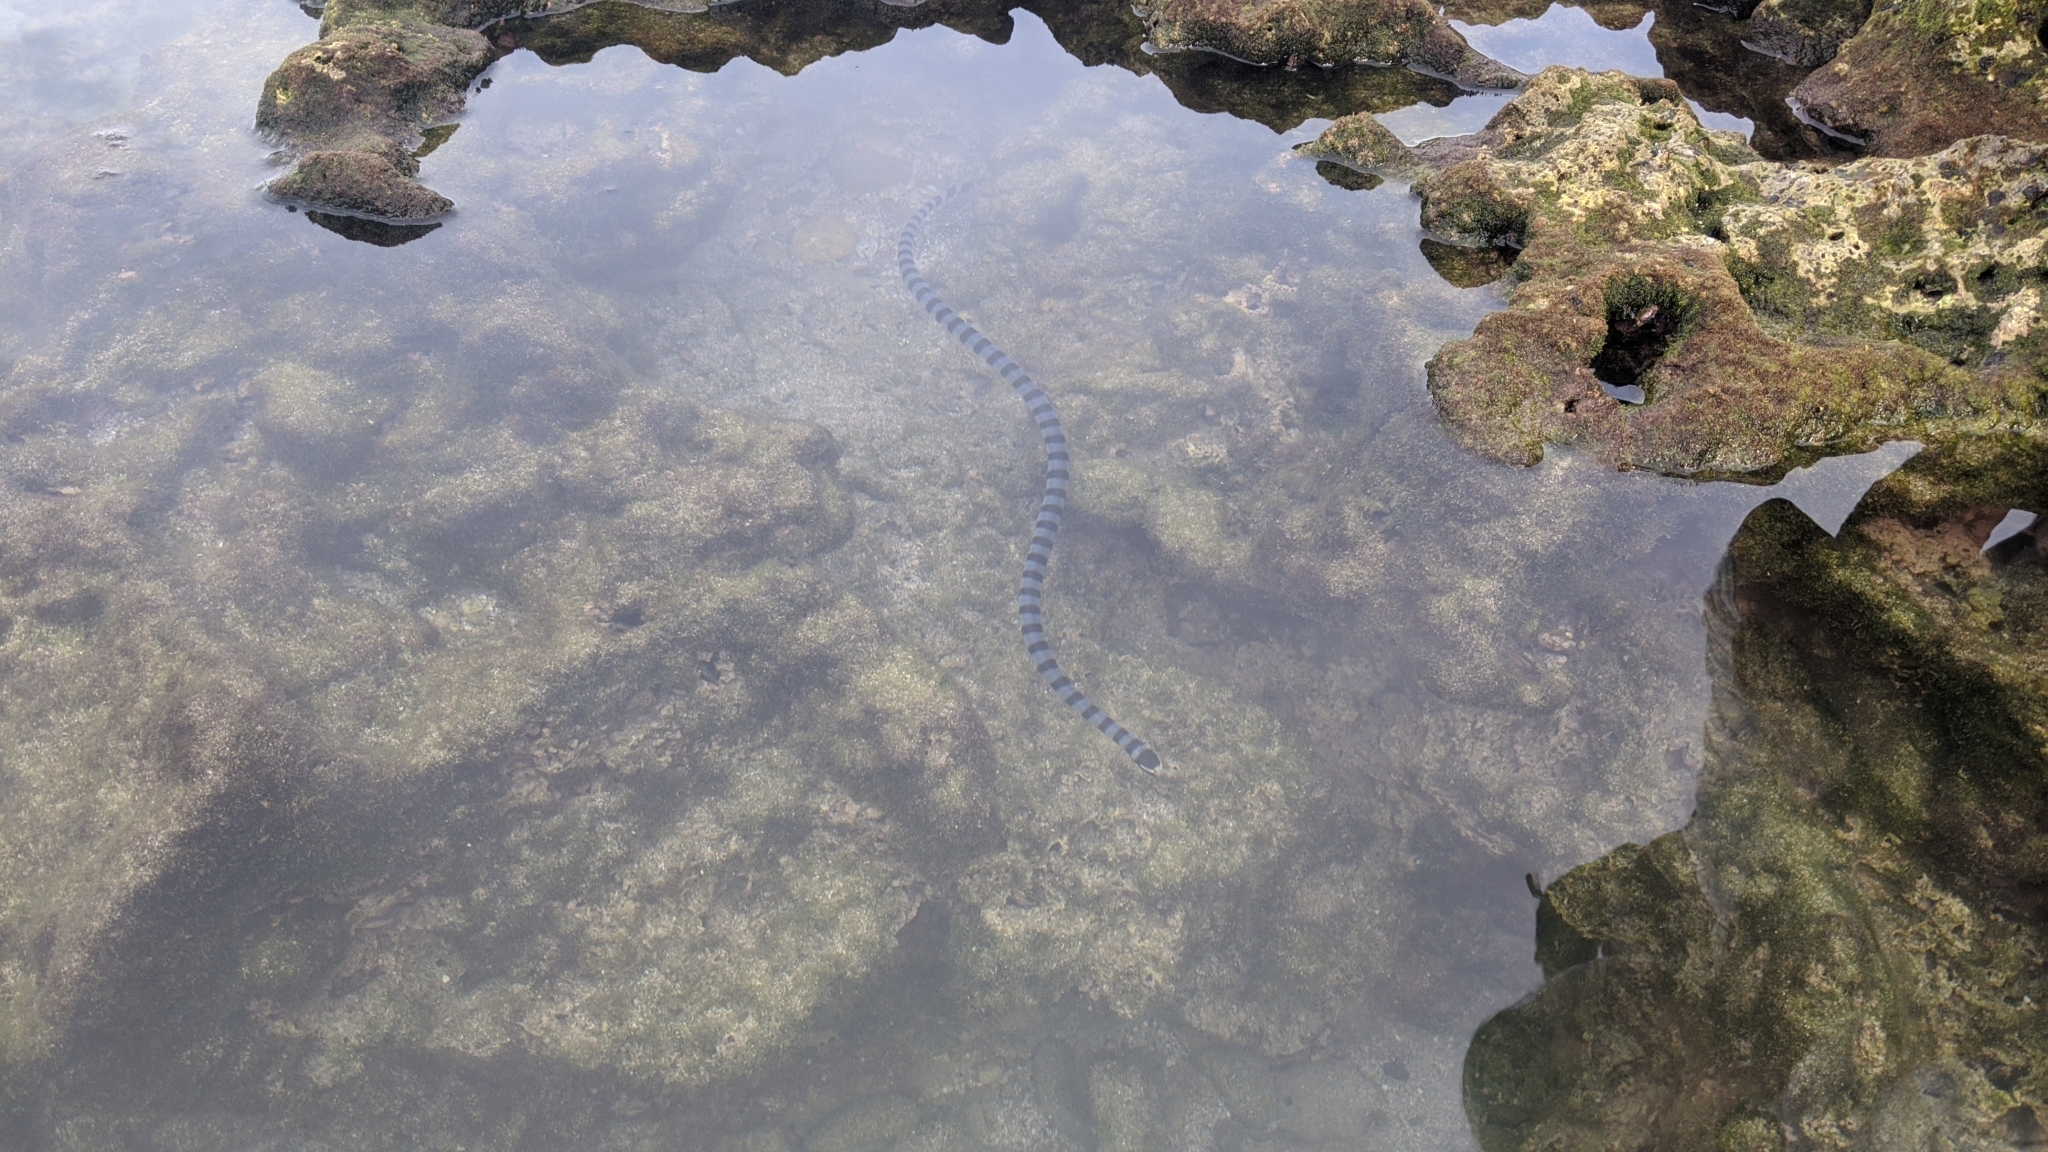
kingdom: Animalia
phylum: Chordata
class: Squamata
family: Elapidae
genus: Laticauda
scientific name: Laticauda colubrina
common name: Yellow-lipped sea krait
